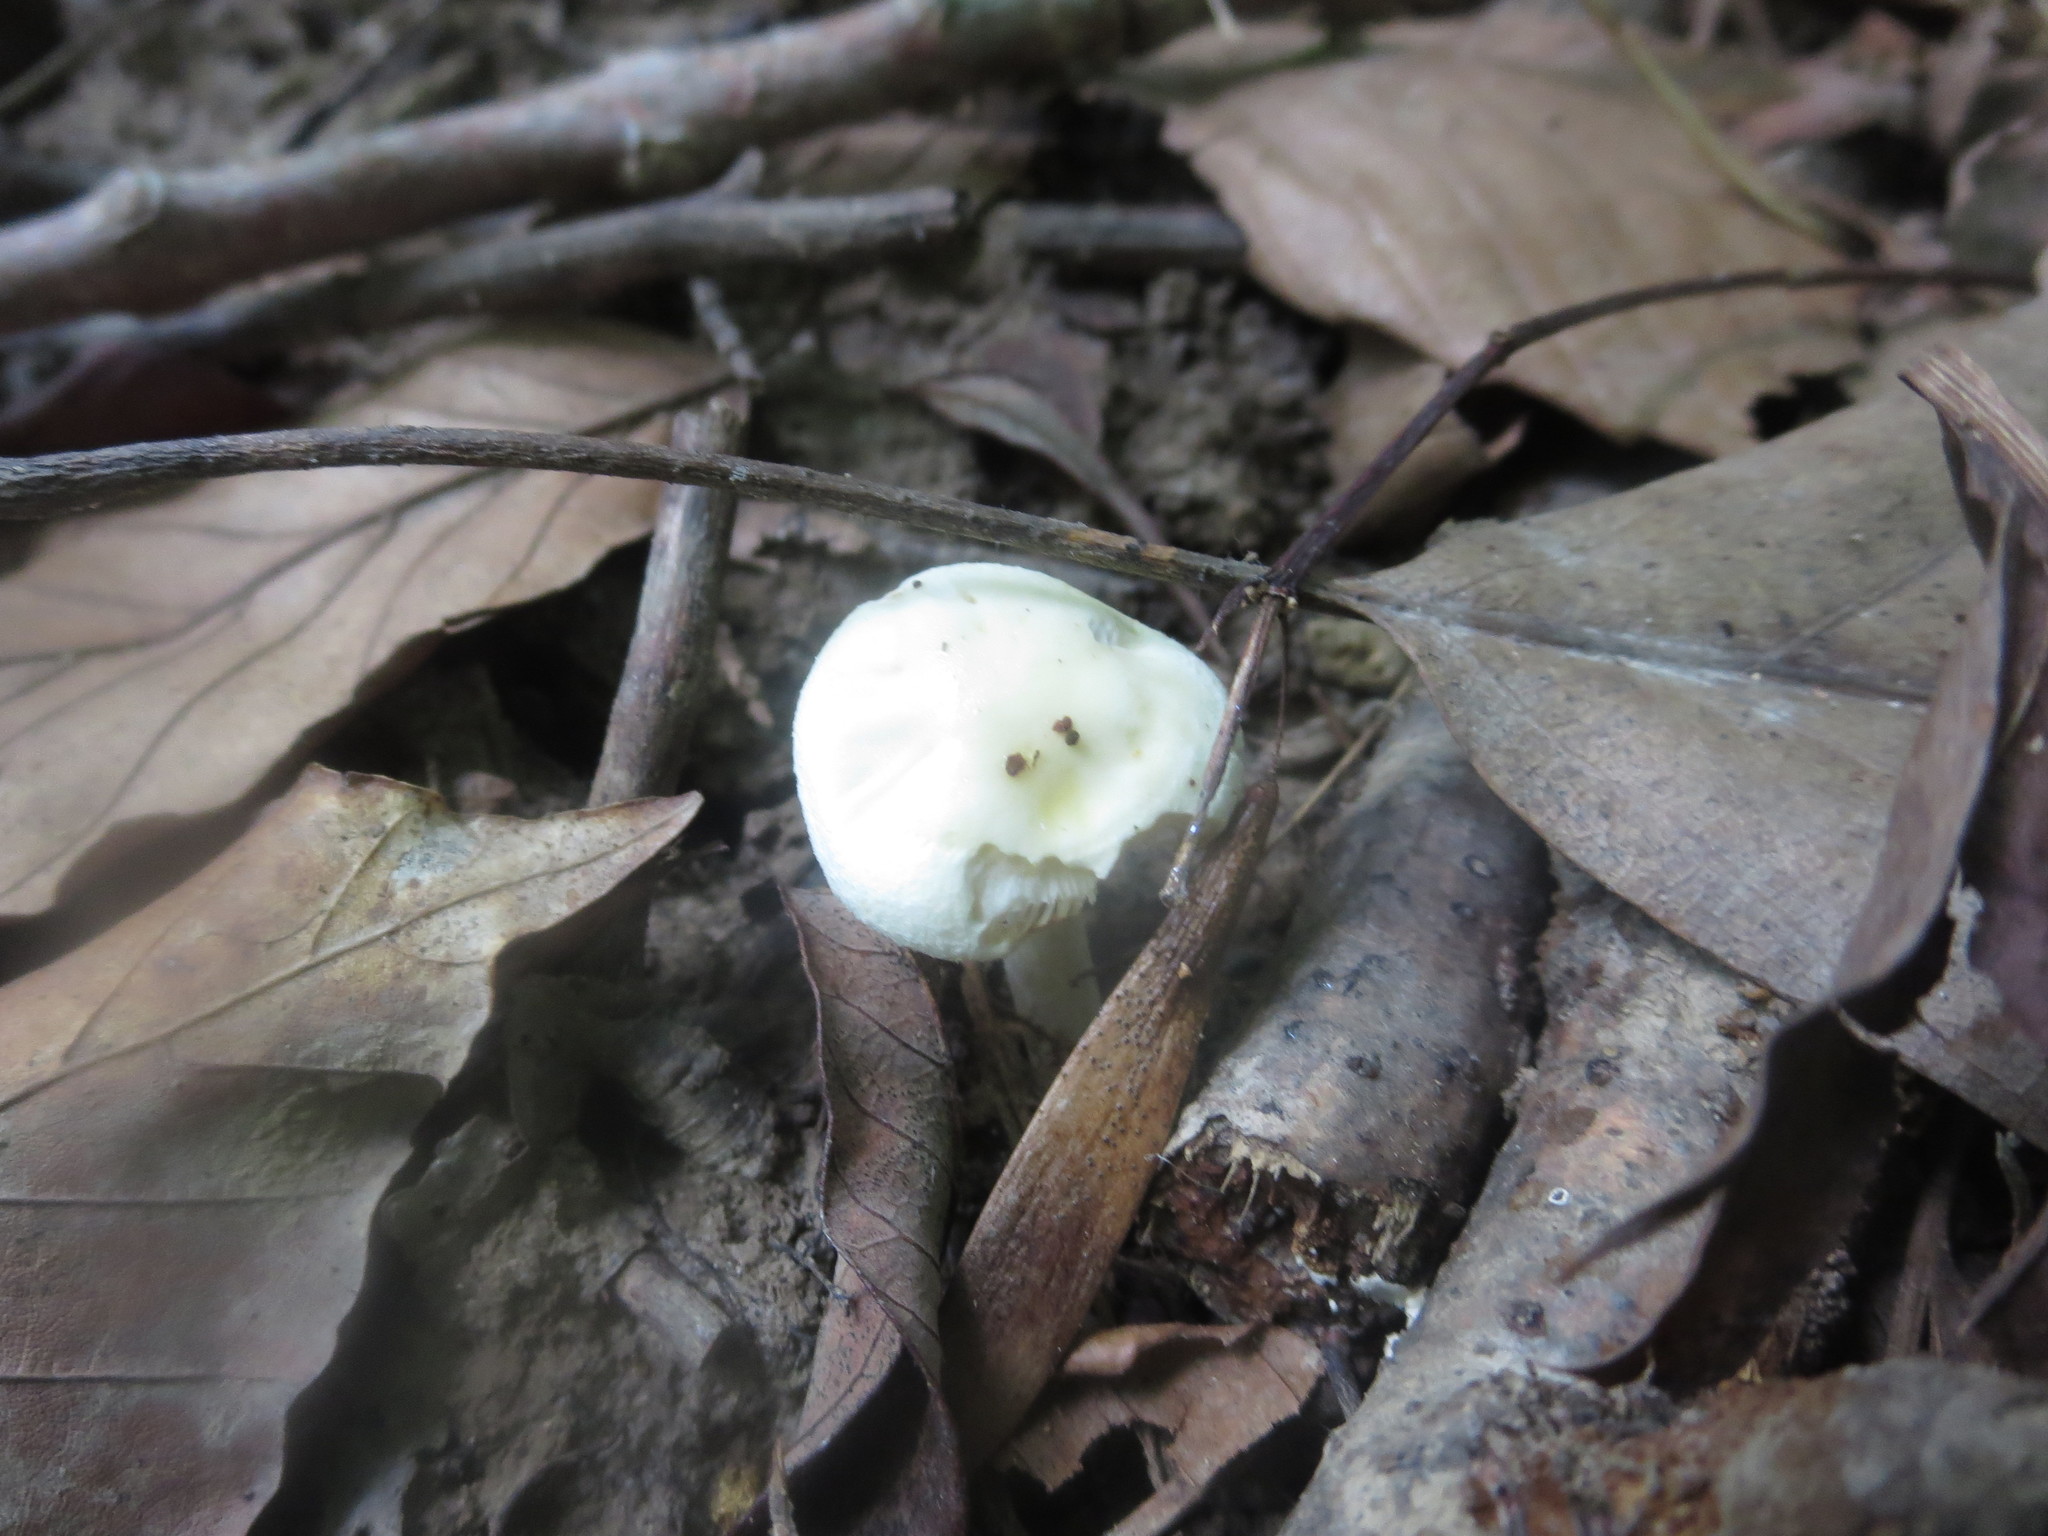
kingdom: Fungi
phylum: Basidiomycota
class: Agaricomycetes
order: Agaricales
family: Hygrophoraceae
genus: Hygrophorus
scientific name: Hygrophorus eburneus
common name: Ivory wax-cap
